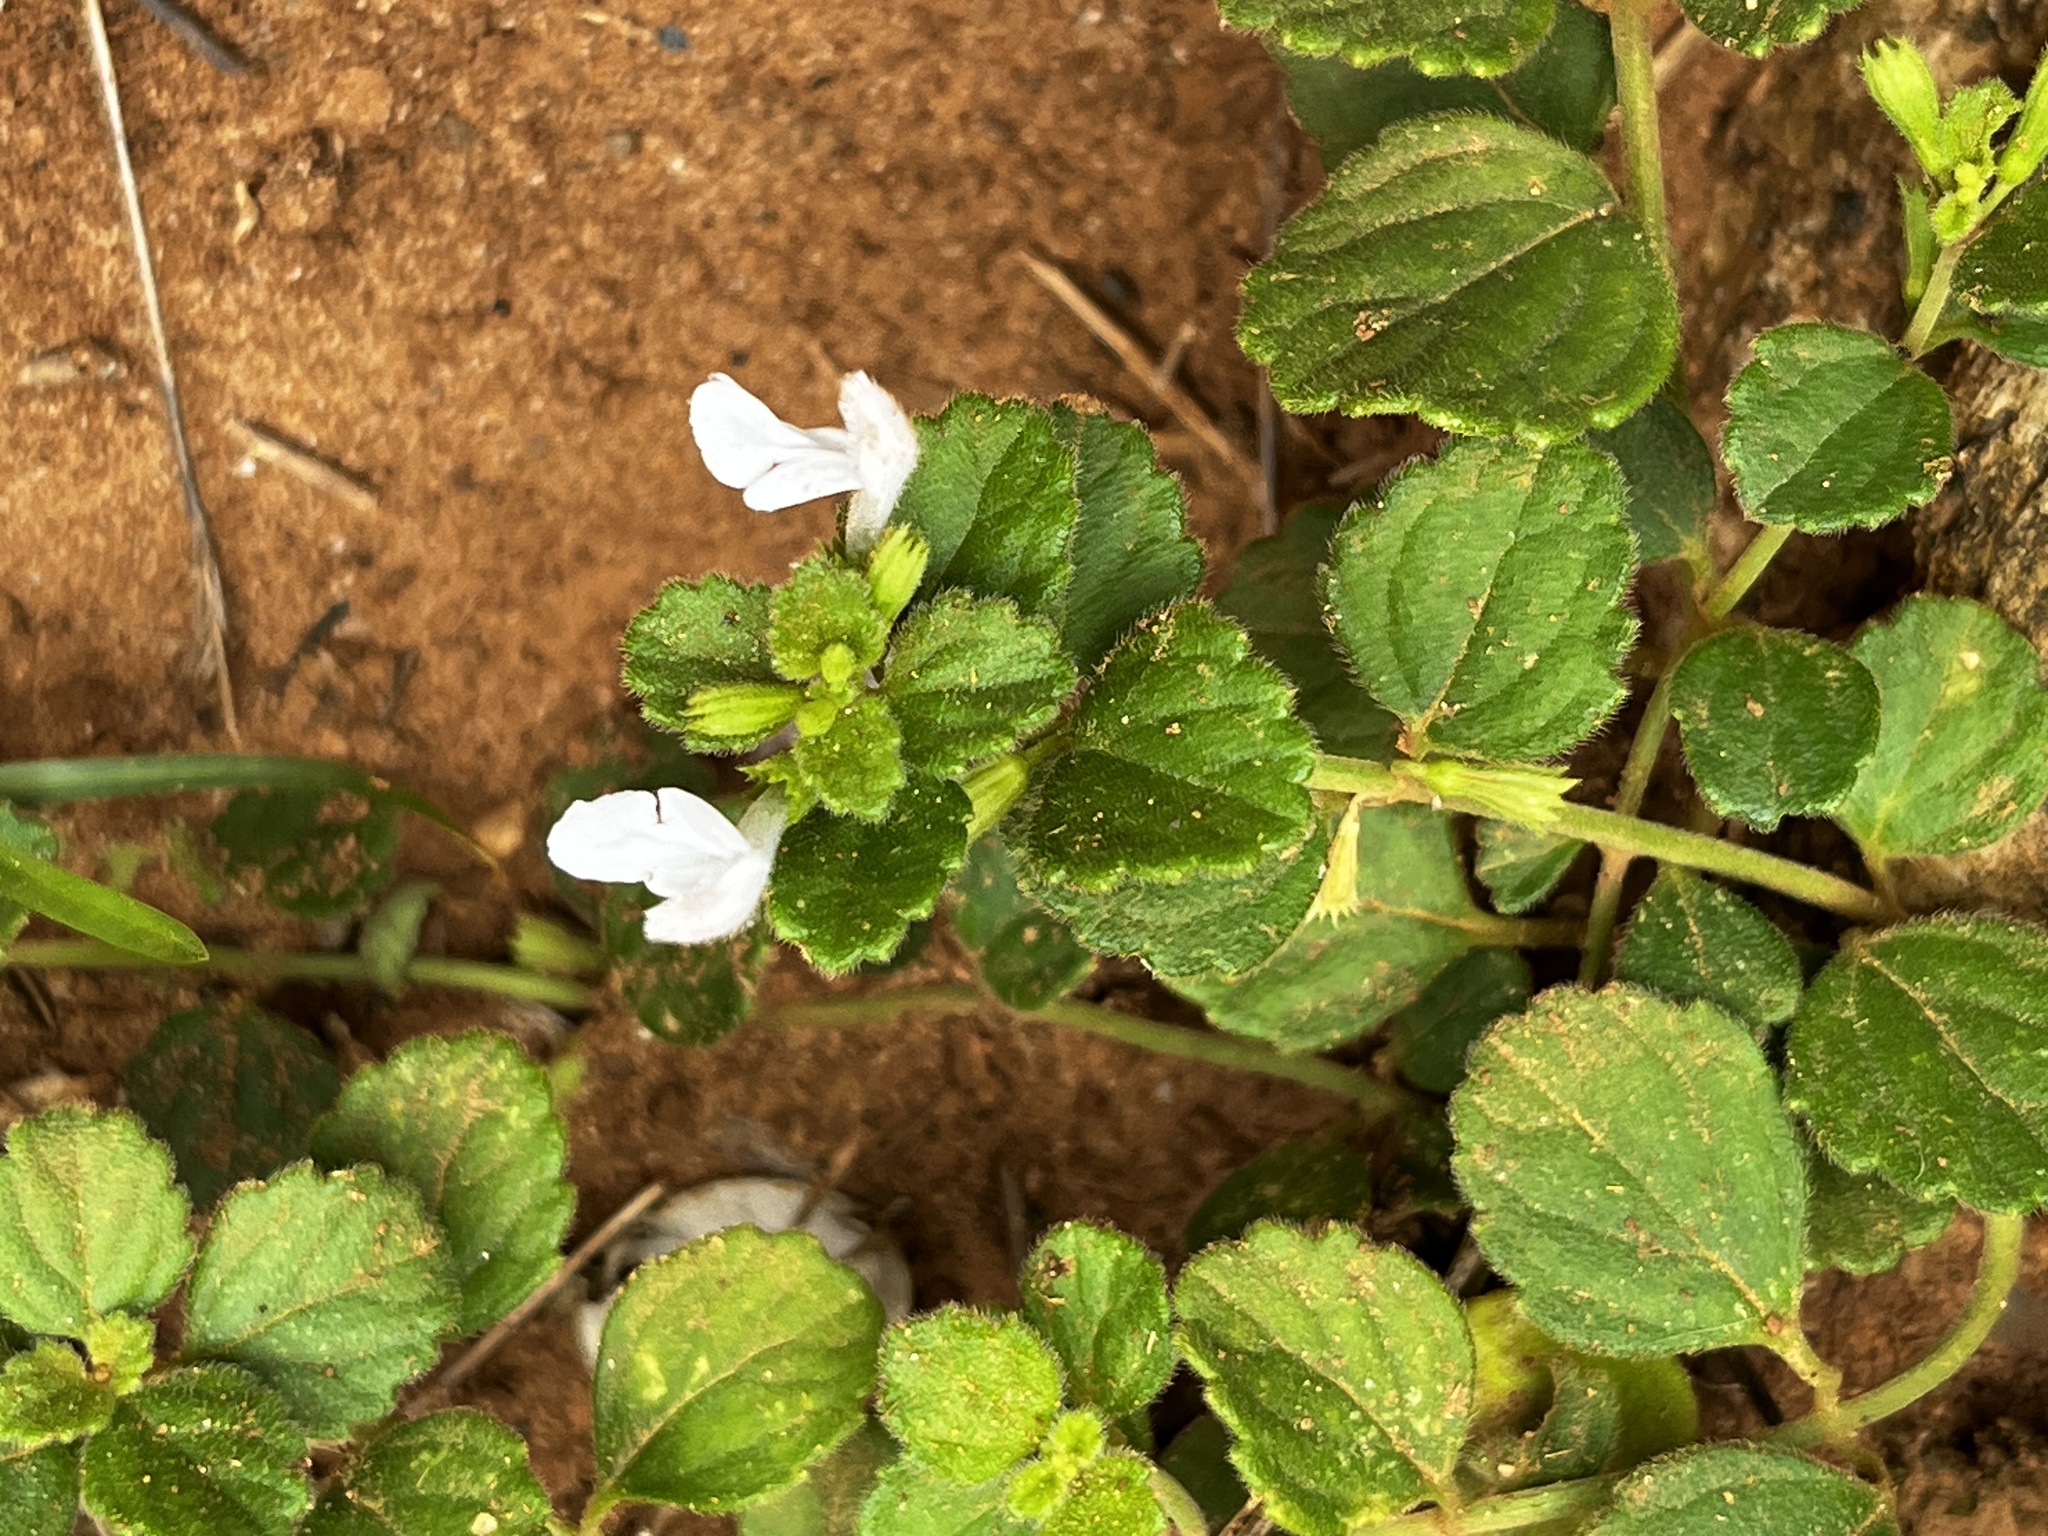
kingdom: Plantae
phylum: Tracheophyta
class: Magnoliopsida
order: Lamiales
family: Lamiaceae
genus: Leucas
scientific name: Leucas chinensis
